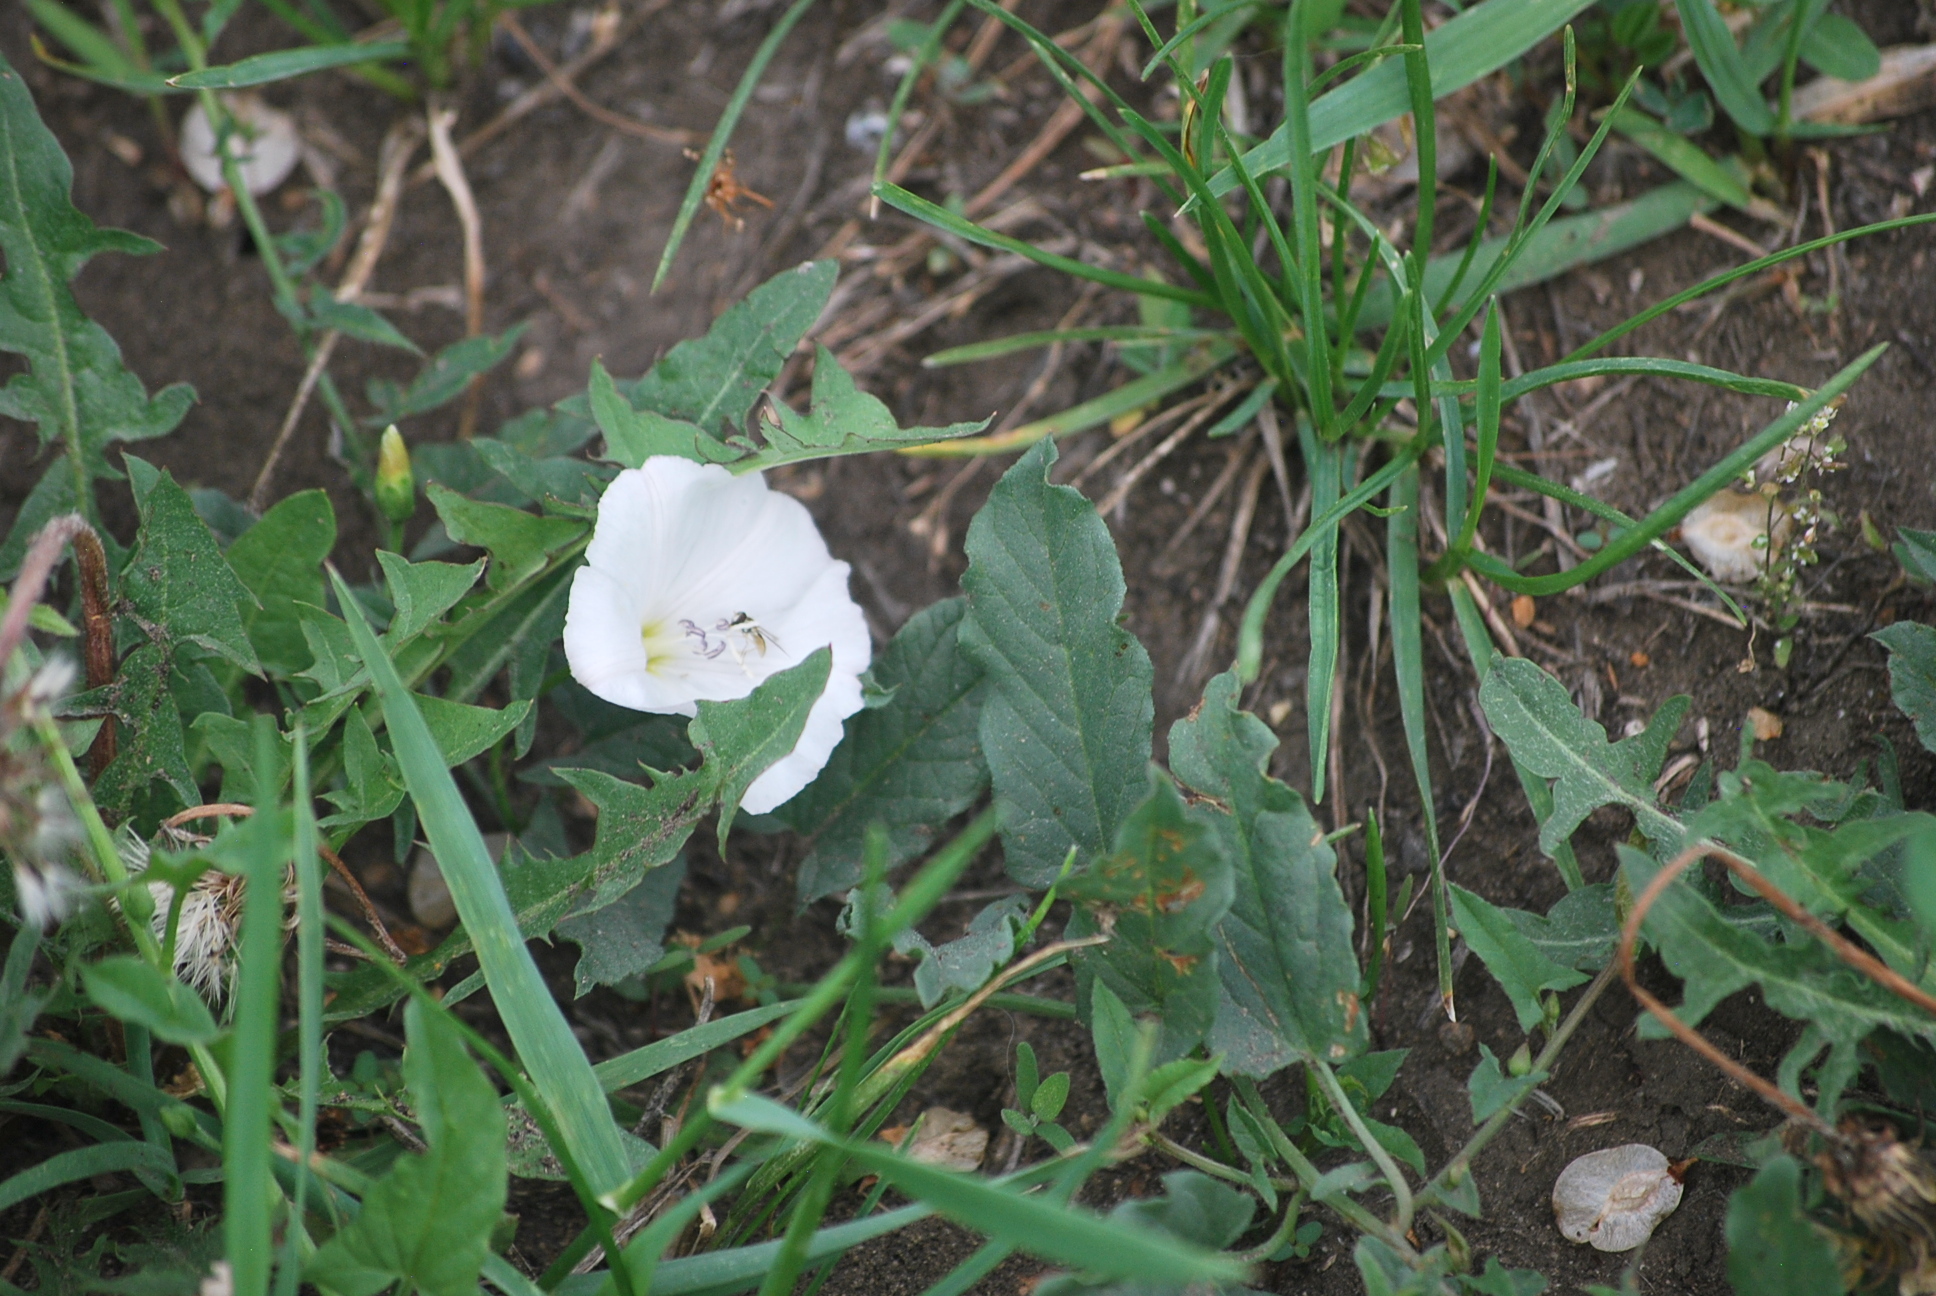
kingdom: Plantae
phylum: Tracheophyta
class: Magnoliopsida
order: Solanales
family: Convolvulaceae
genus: Convolvulus
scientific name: Convolvulus arvensis
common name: Field bindweed
